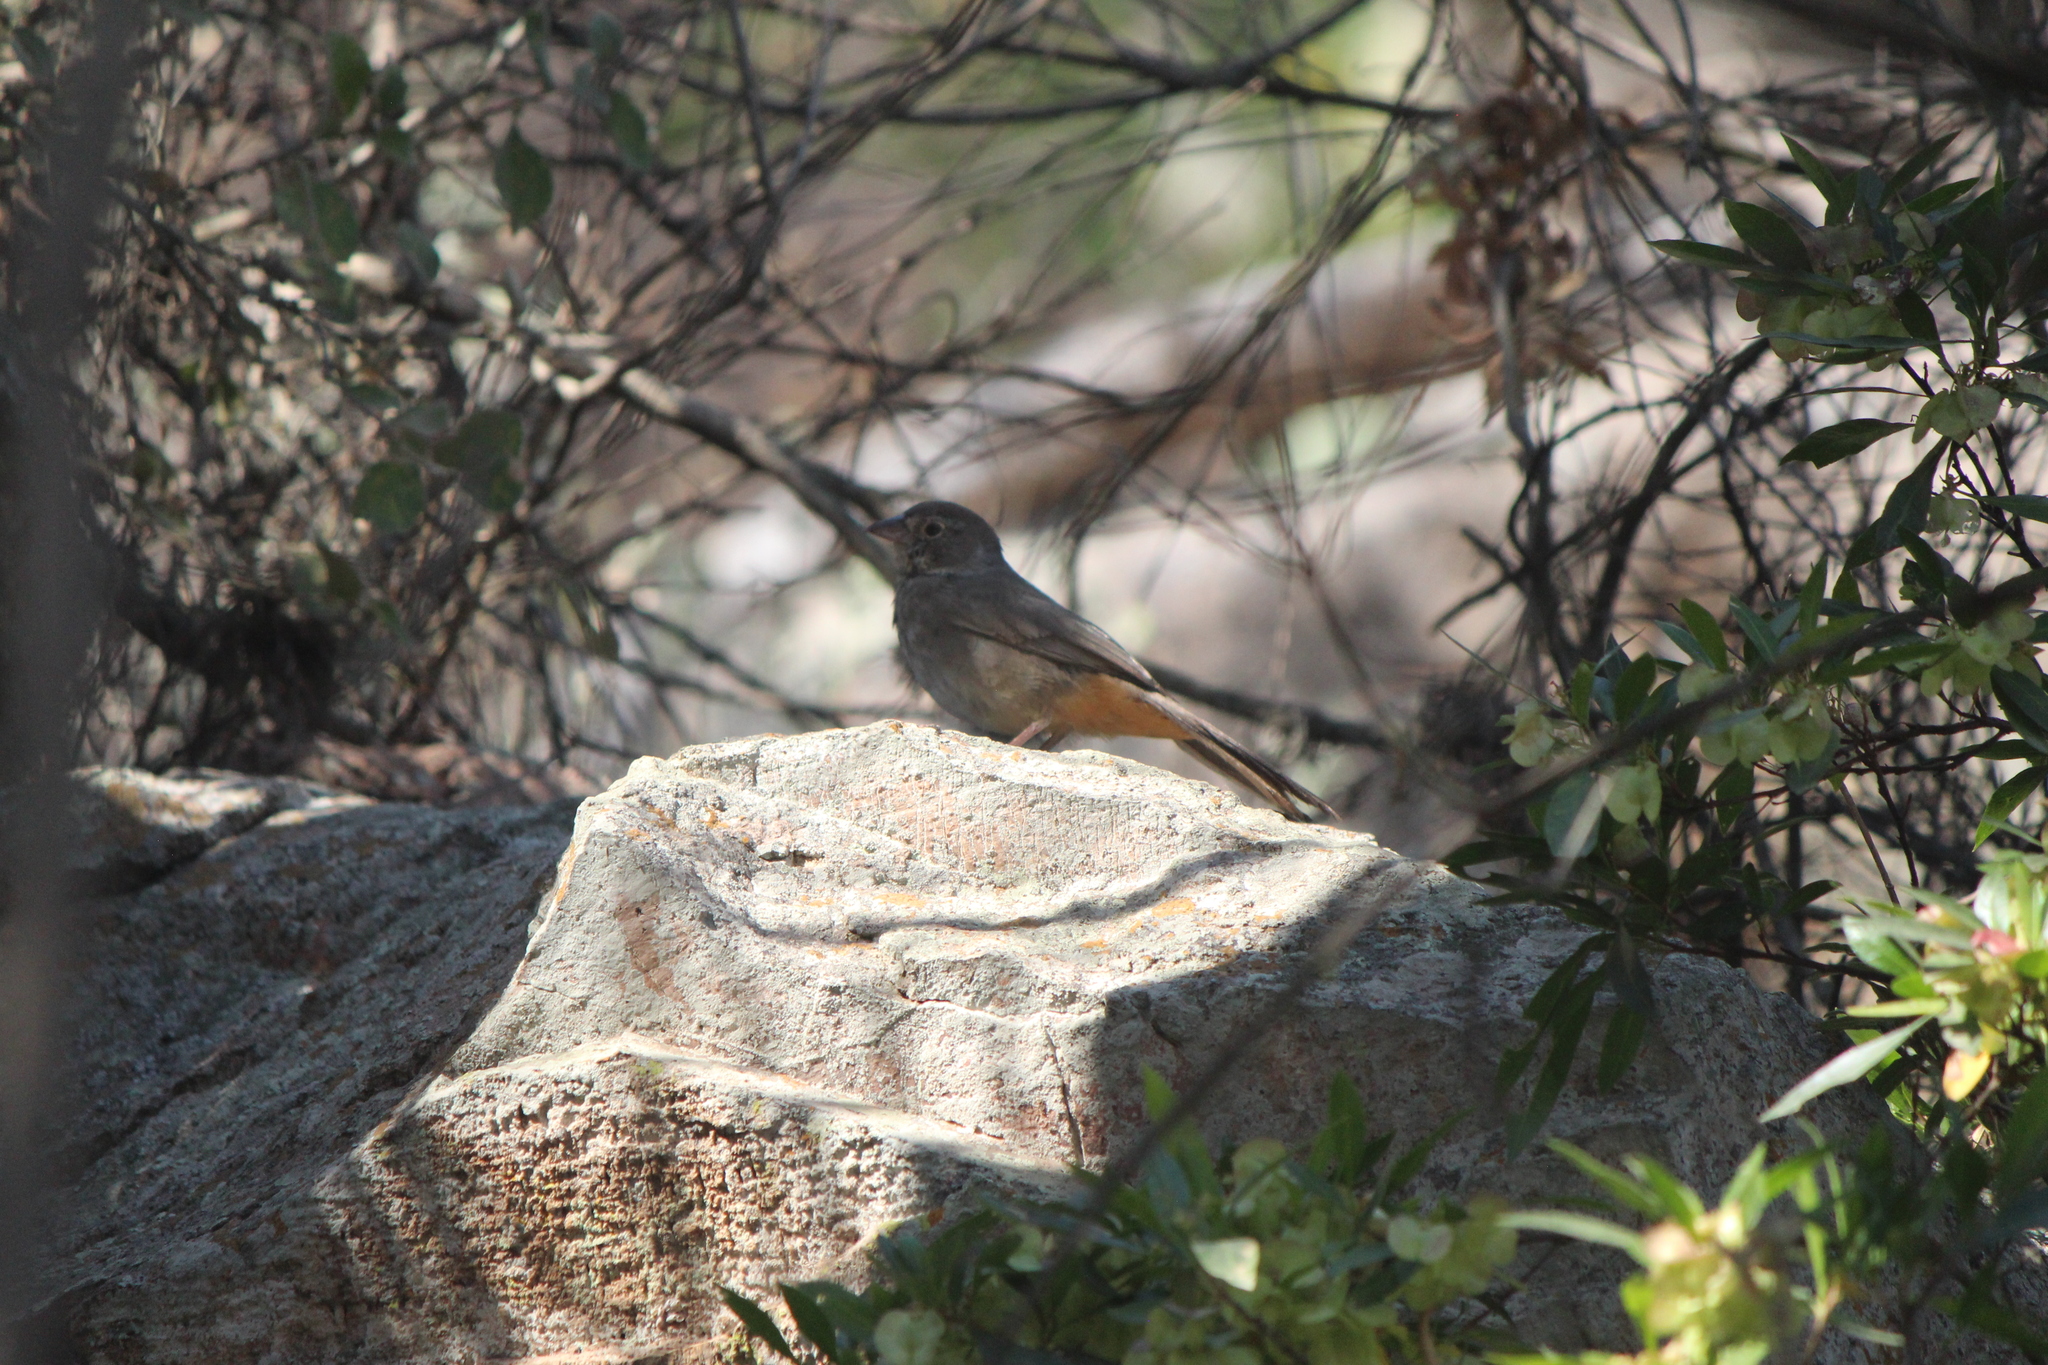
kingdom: Animalia
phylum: Chordata
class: Aves
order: Passeriformes
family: Passerellidae
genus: Melozone
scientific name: Melozone fusca
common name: Canyon towhee
